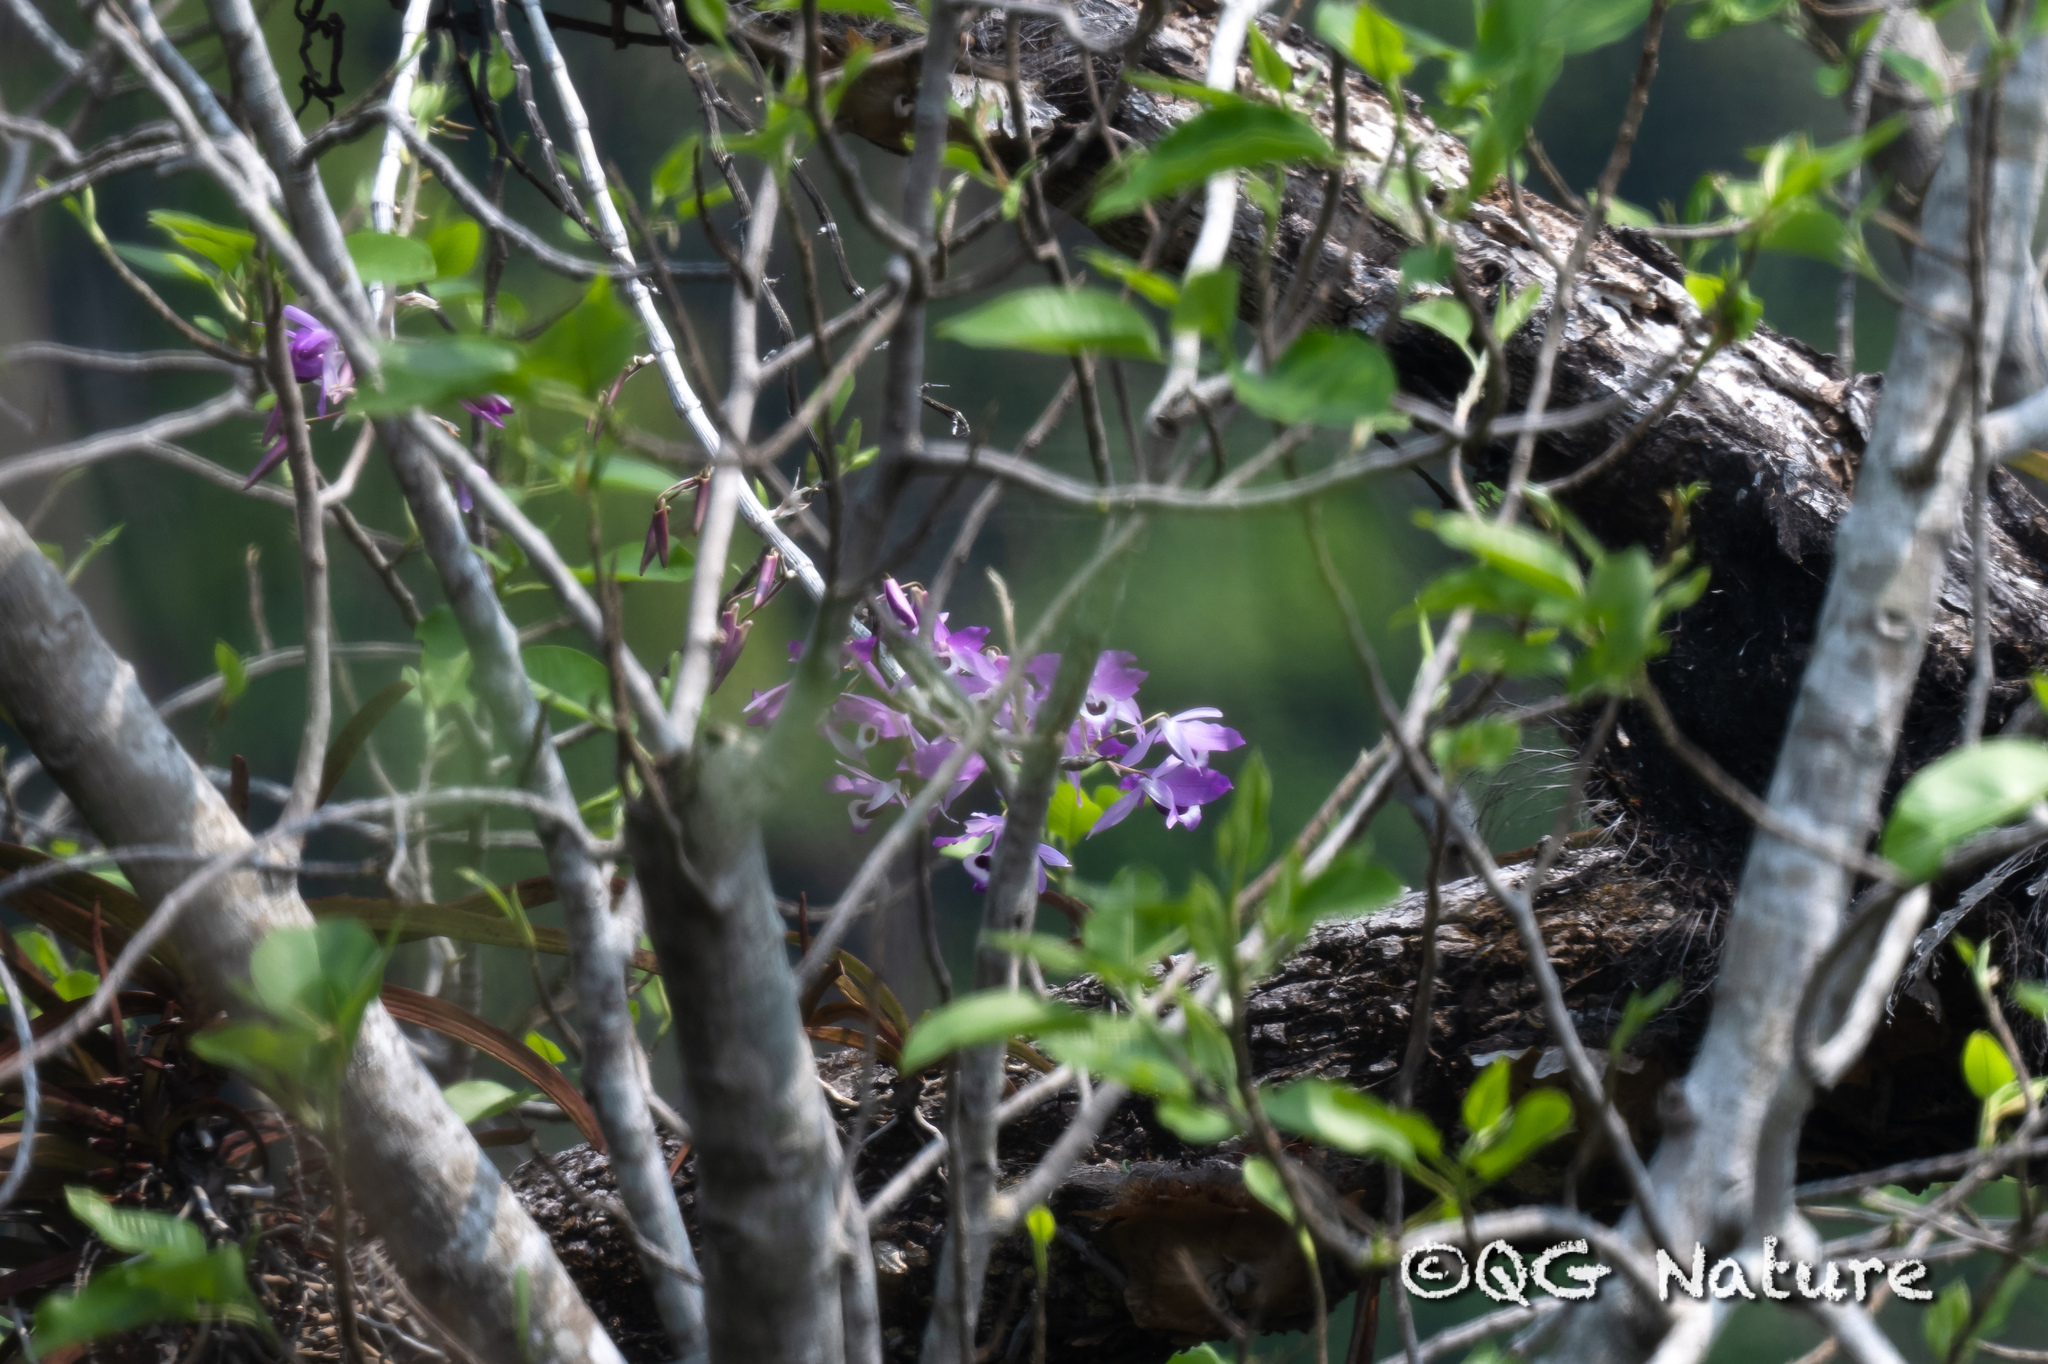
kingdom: Plantae
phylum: Tracheophyta
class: Liliopsida
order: Asparagales
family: Orchidaceae
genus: Dendrobium
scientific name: Dendrobium lituiflorum
